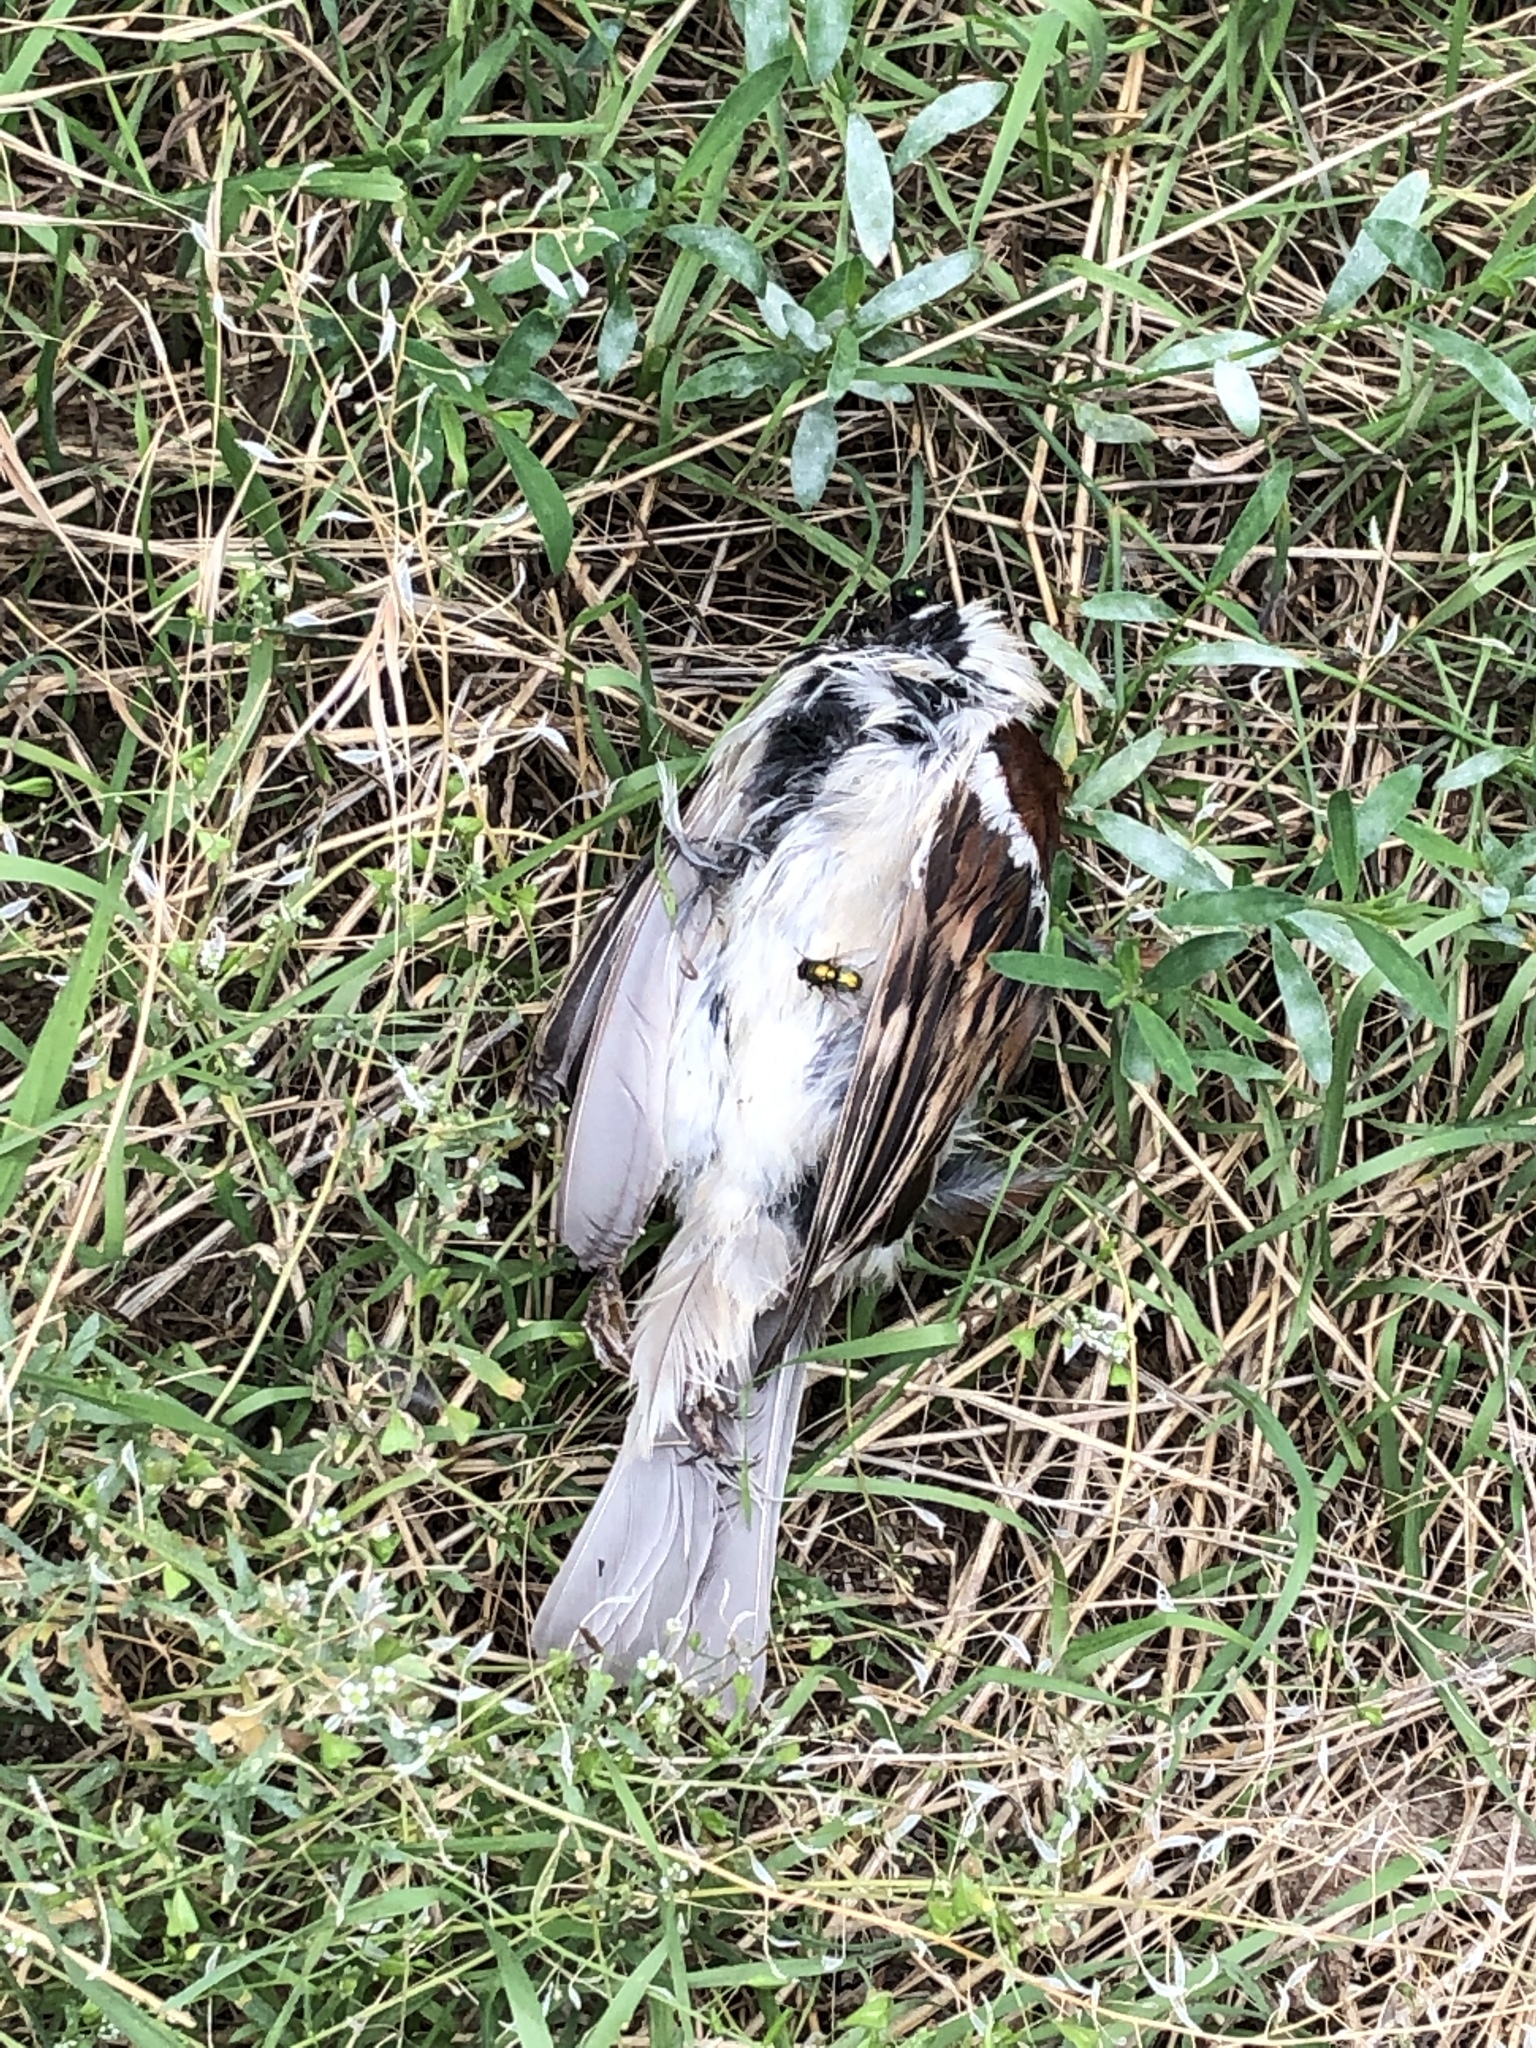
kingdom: Animalia
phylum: Chordata
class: Aves
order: Passeriformes
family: Passeridae
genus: Passer
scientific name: Passer domesticus
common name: House sparrow
